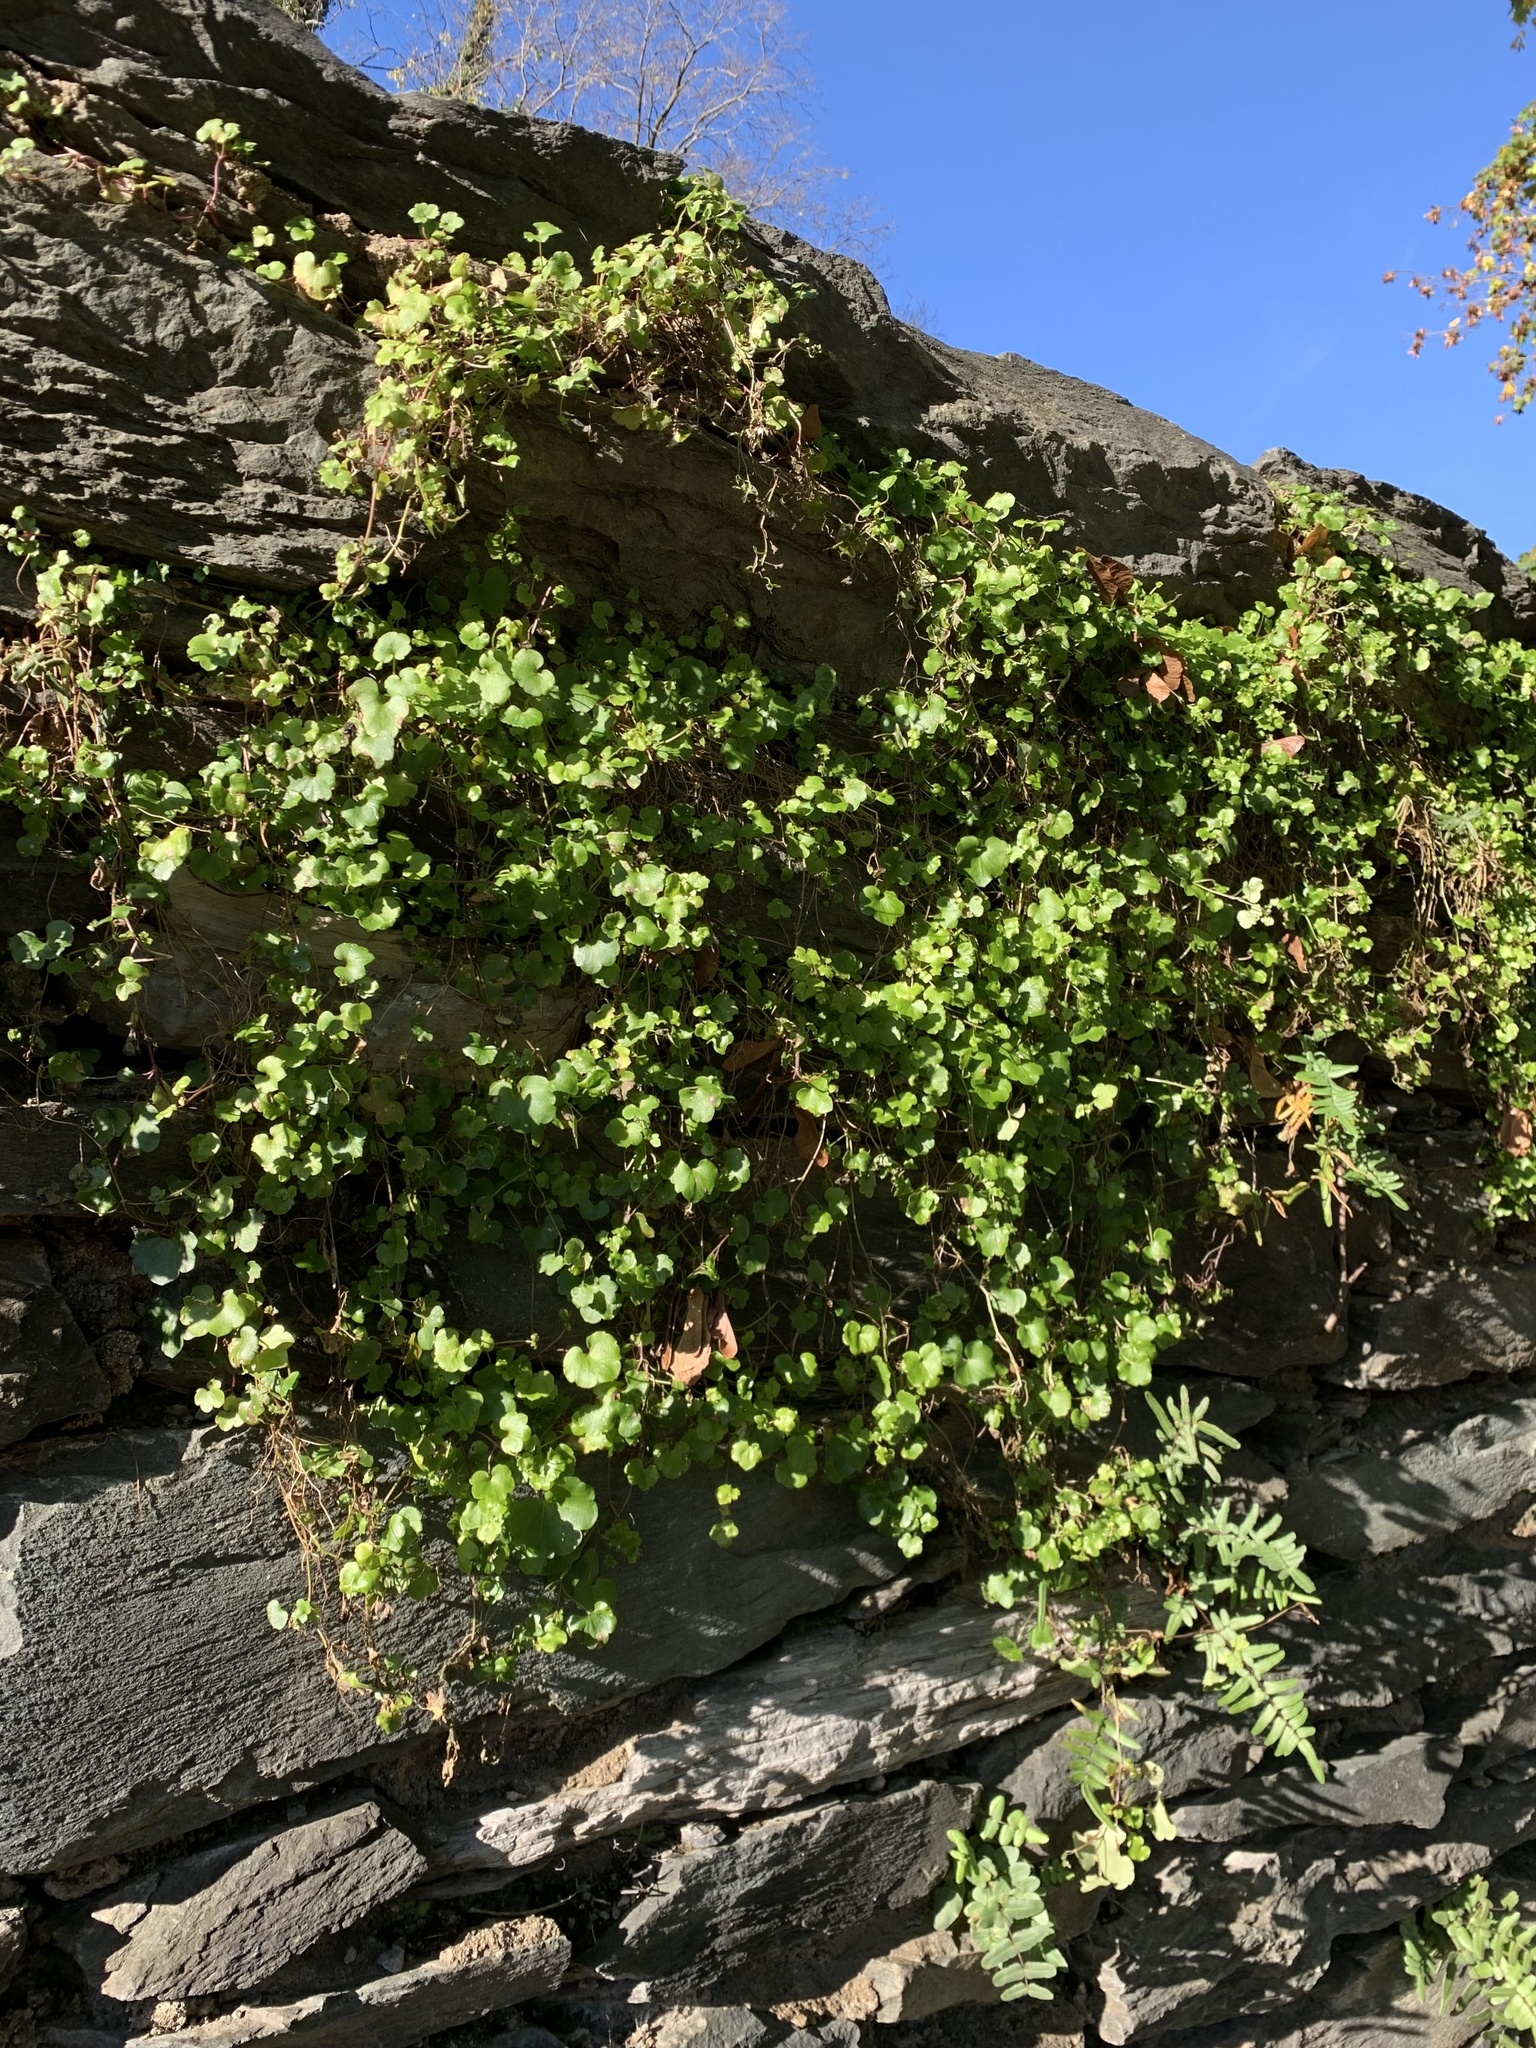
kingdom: Plantae
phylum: Tracheophyta
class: Magnoliopsida
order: Lamiales
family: Plantaginaceae
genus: Cymbalaria
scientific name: Cymbalaria muralis
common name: Ivy-leaved toadflax
